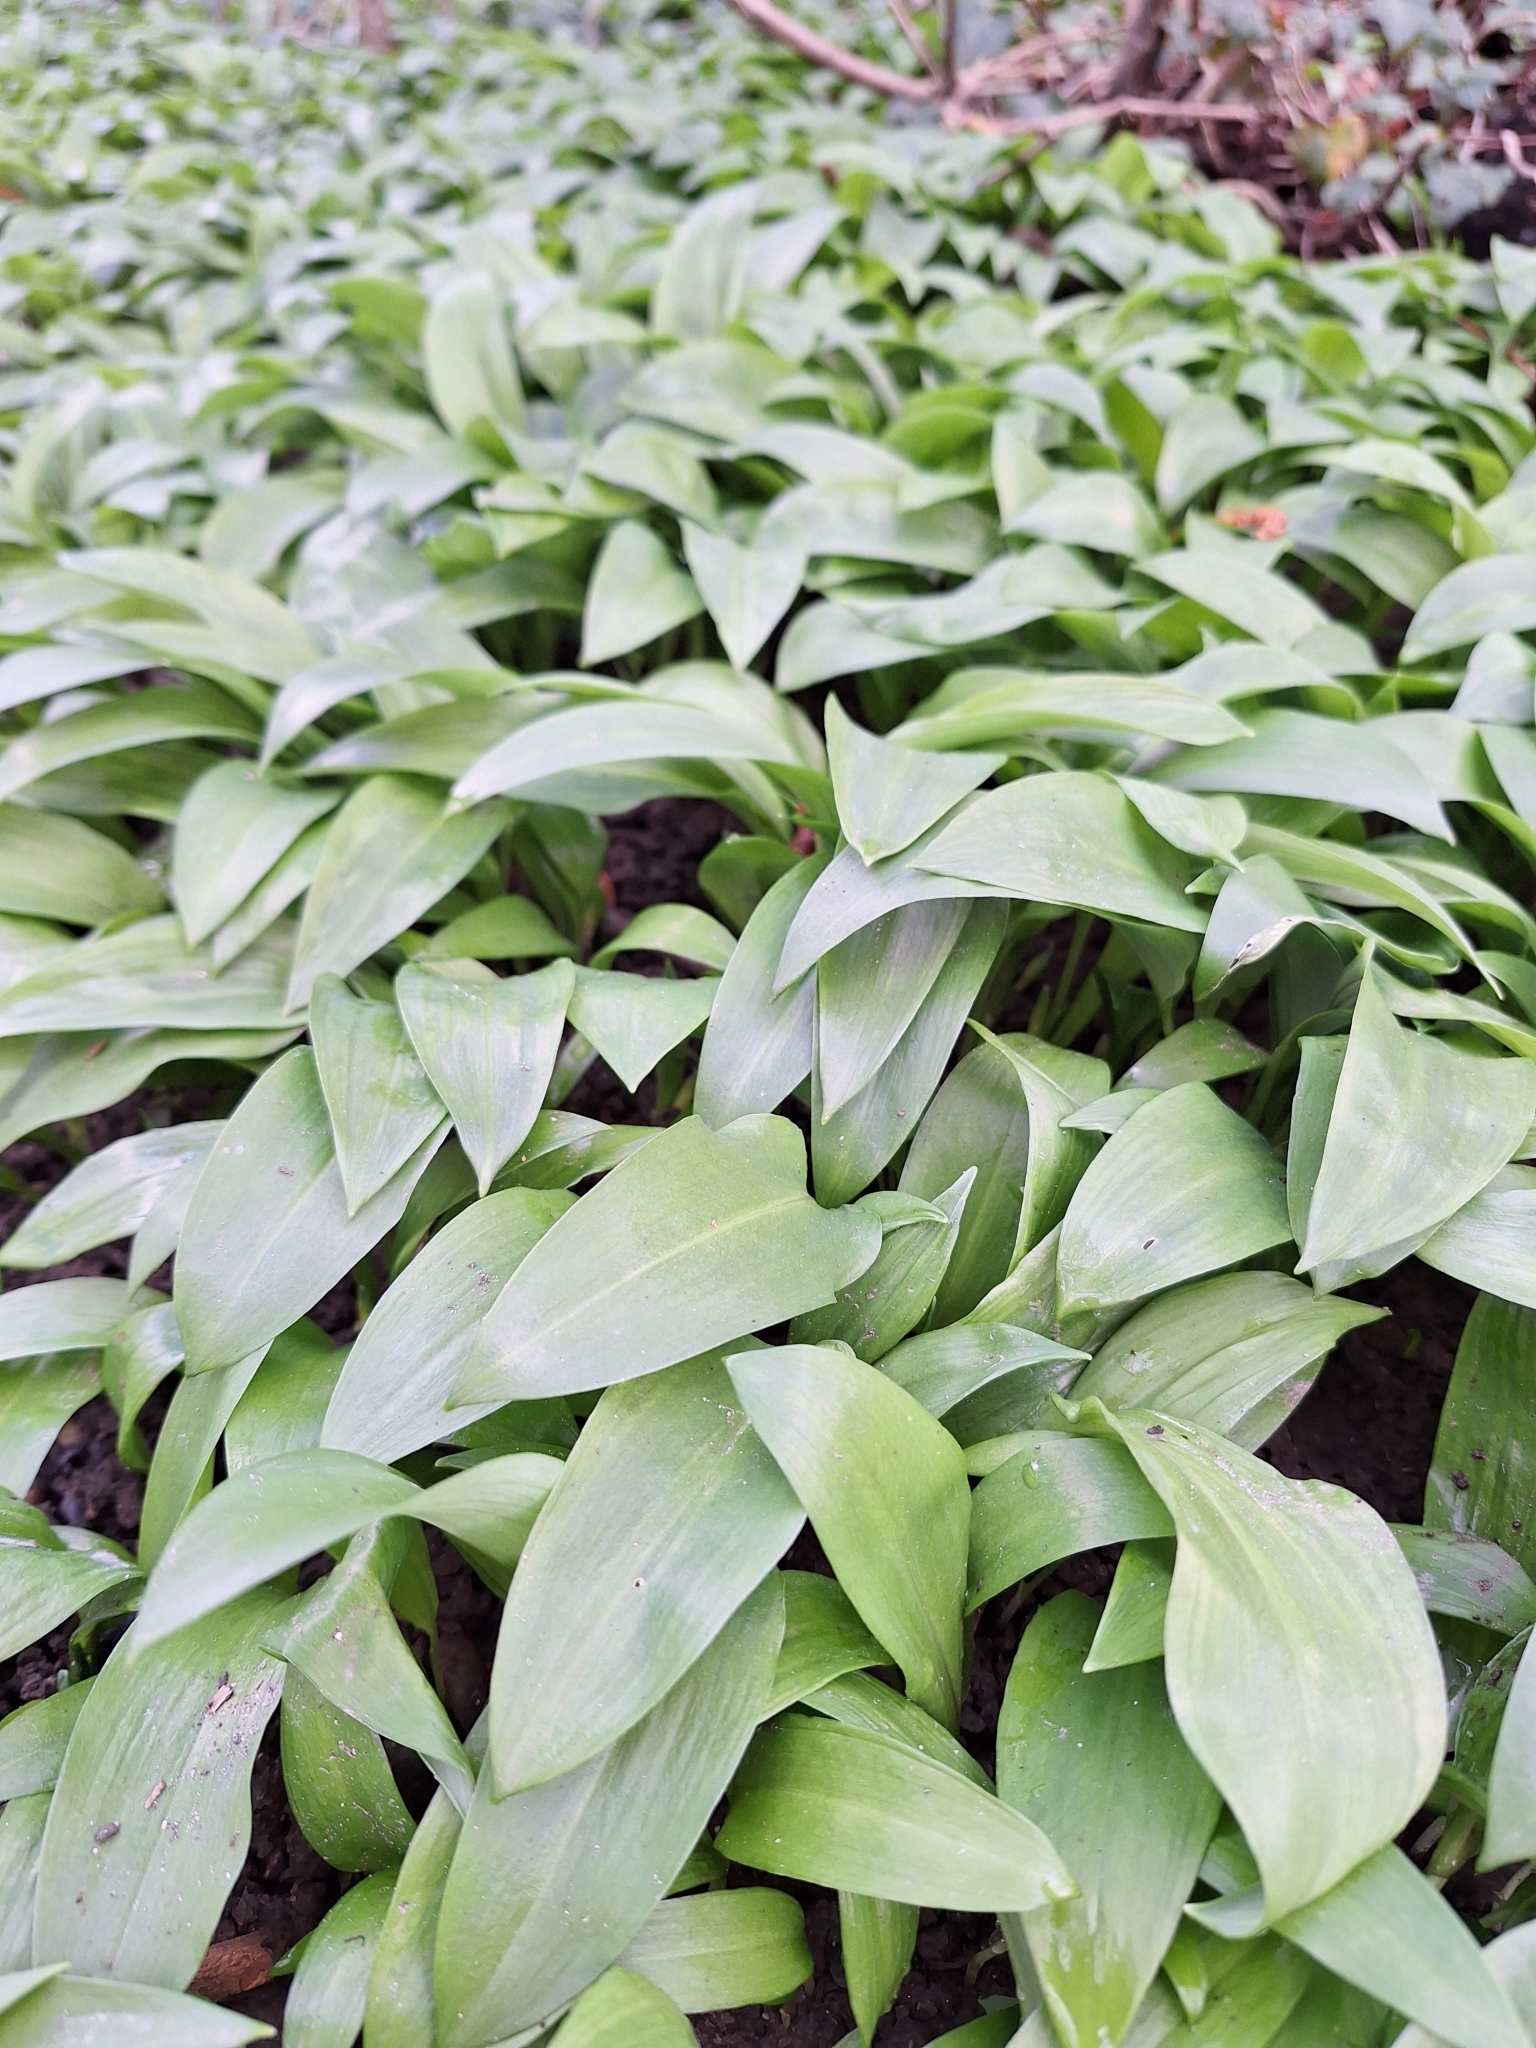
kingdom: Plantae
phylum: Tracheophyta
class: Liliopsida
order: Asparagales
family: Amaryllidaceae
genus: Allium
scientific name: Allium ursinum
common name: Ramsons
